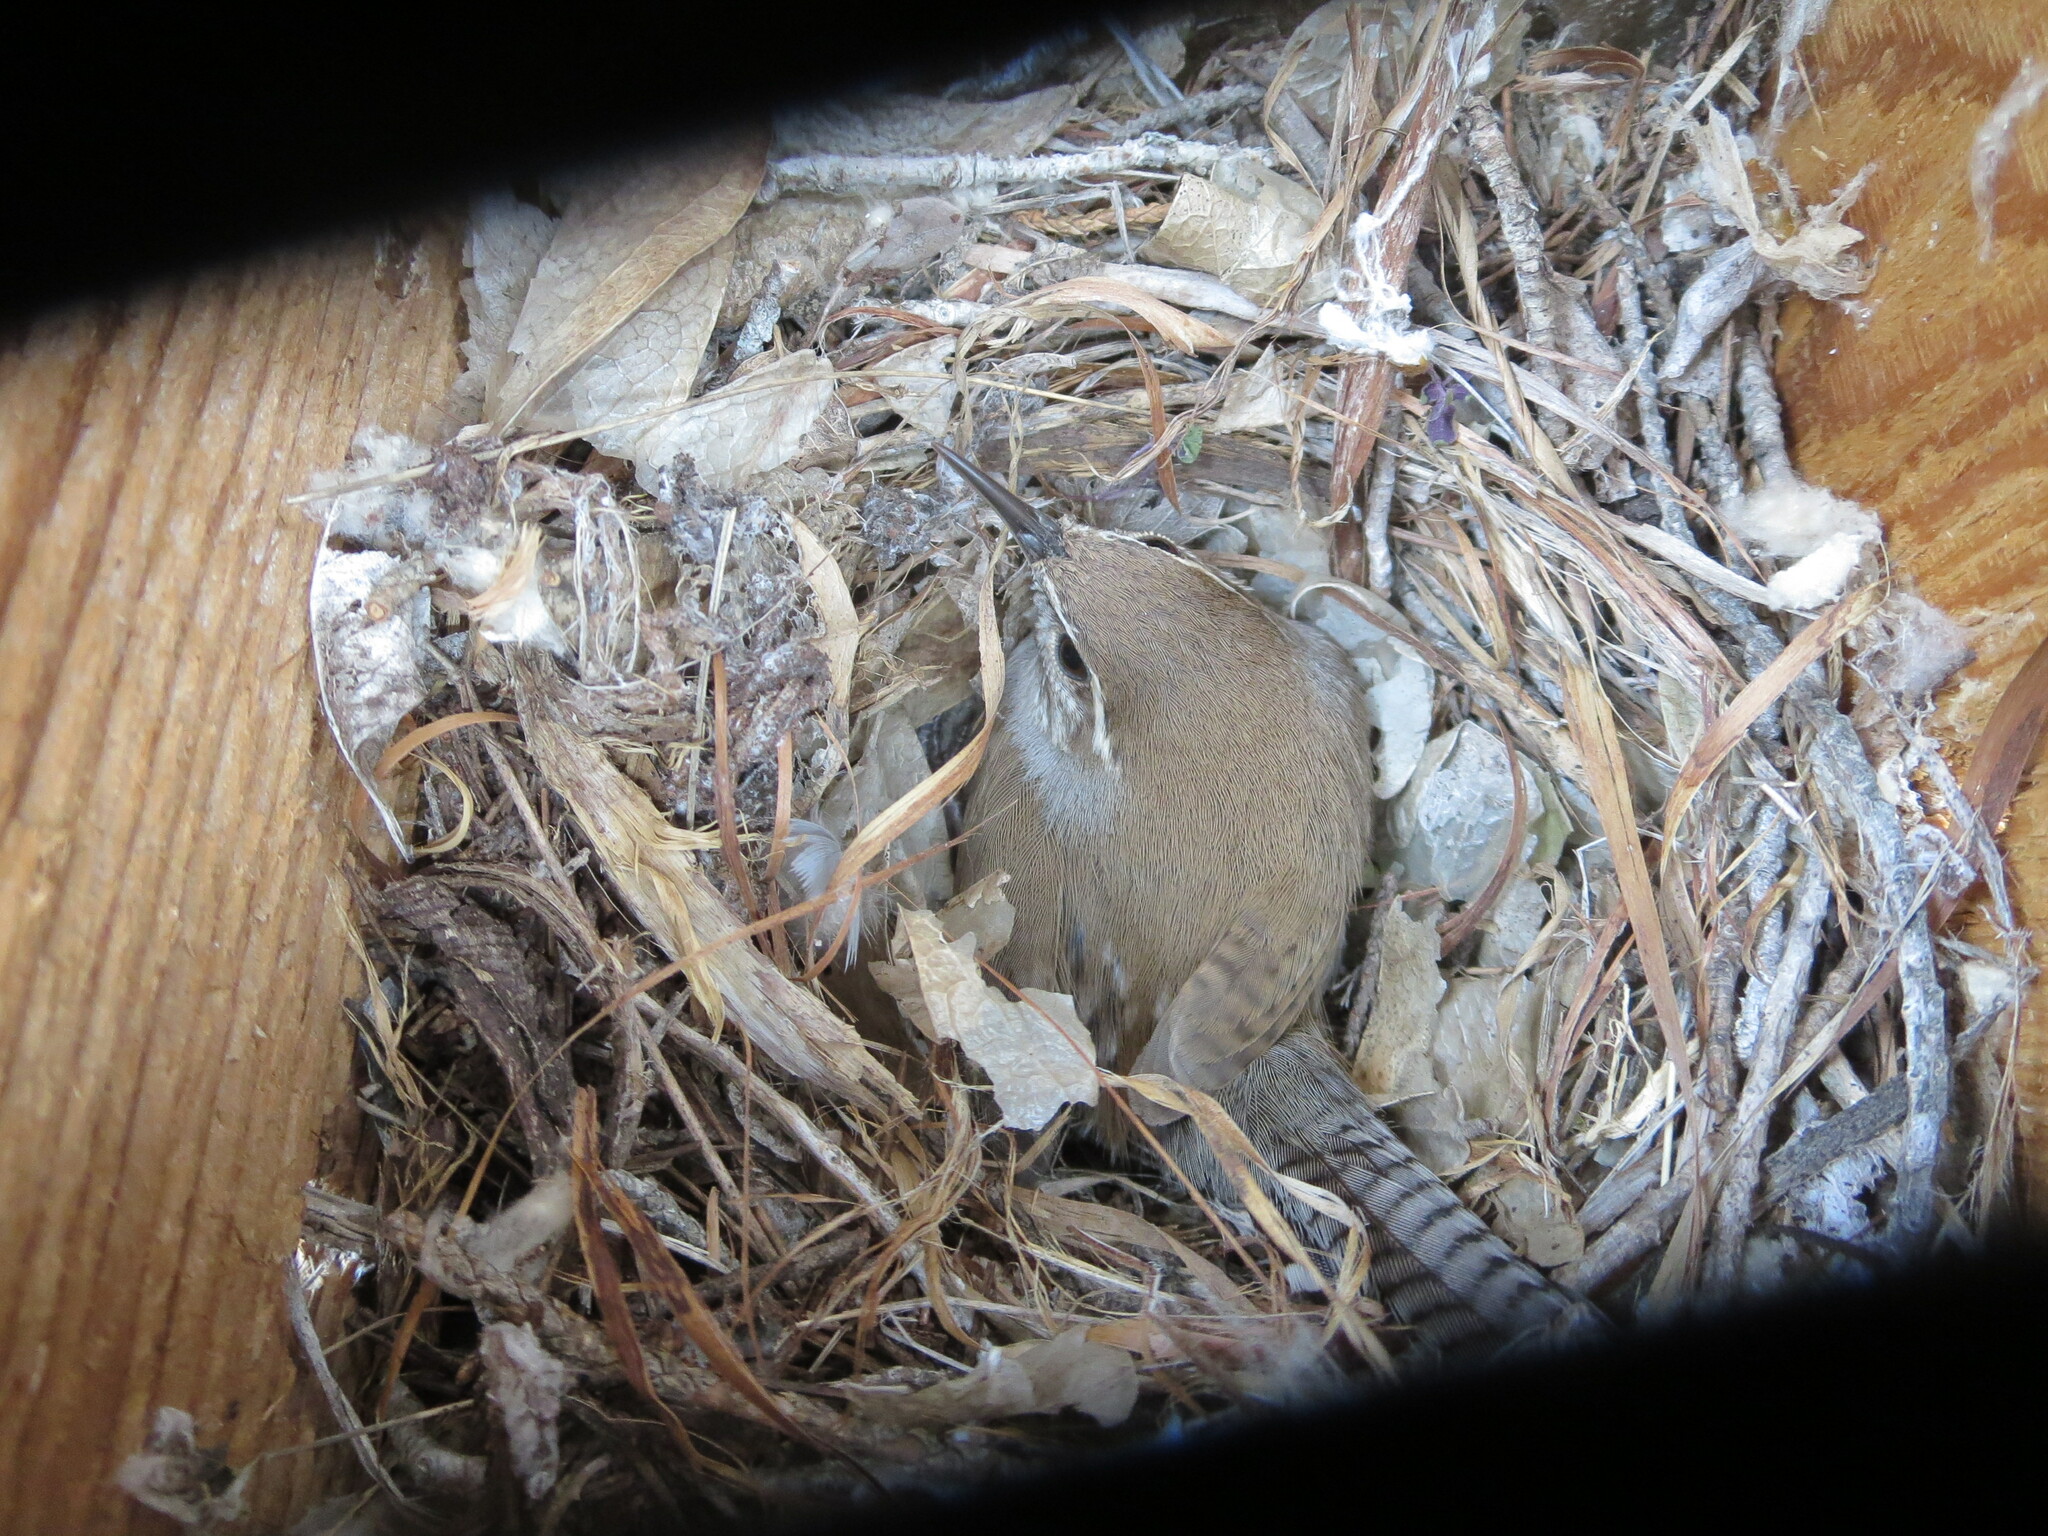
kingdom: Animalia
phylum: Chordata
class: Aves
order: Passeriformes
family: Troglodytidae
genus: Thryomanes
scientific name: Thryomanes bewickii
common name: Bewick's wren
